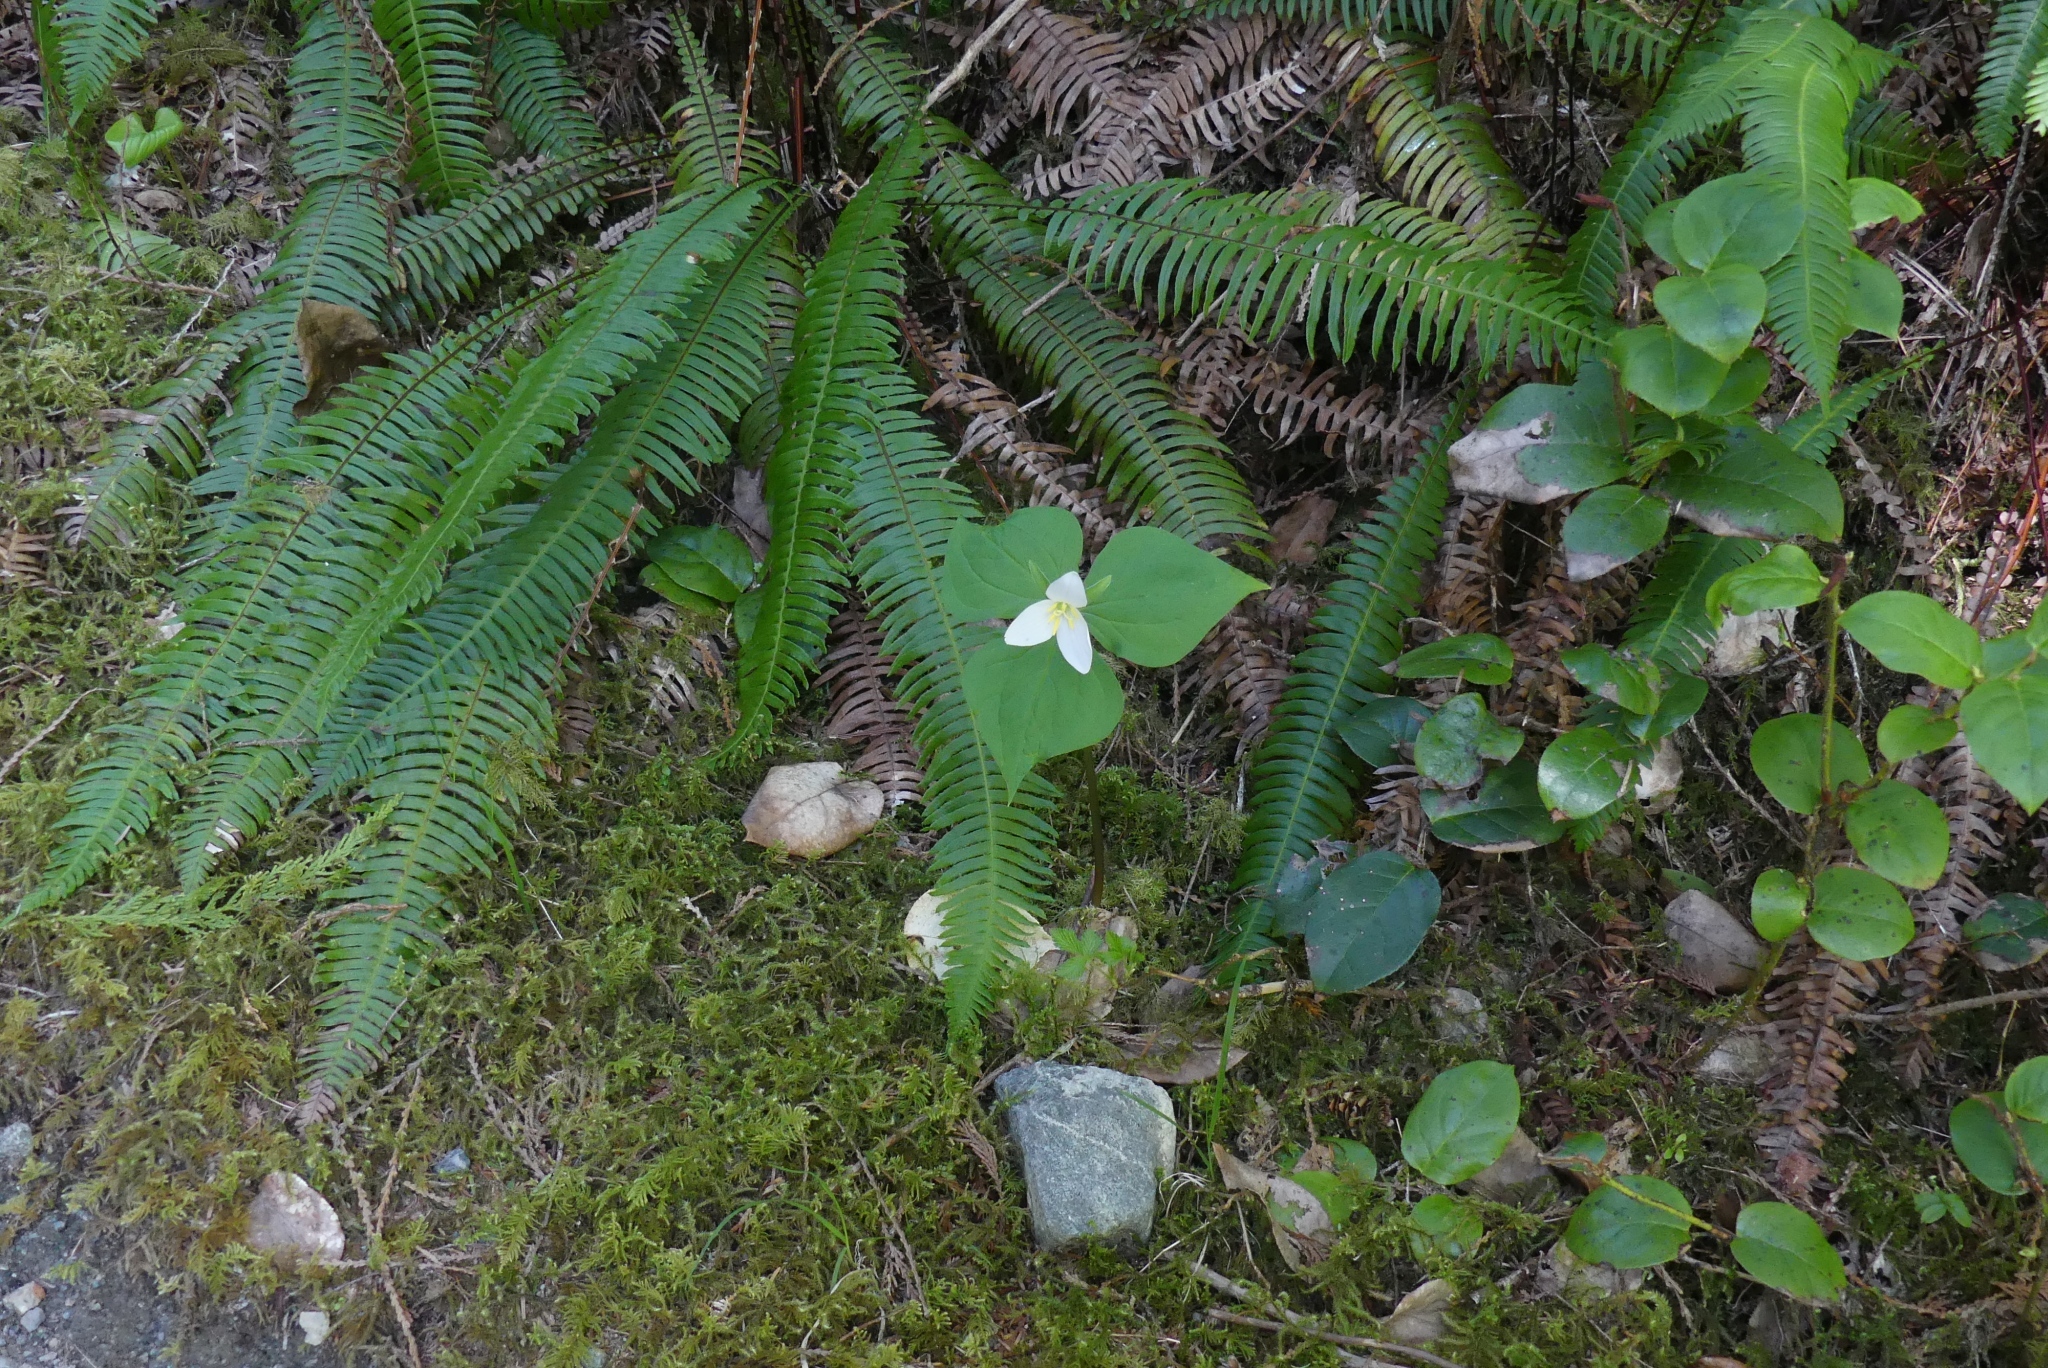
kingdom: Plantae
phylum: Tracheophyta
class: Liliopsida
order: Liliales
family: Melanthiaceae
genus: Trillium
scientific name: Trillium ovatum
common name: Pacific trillium
